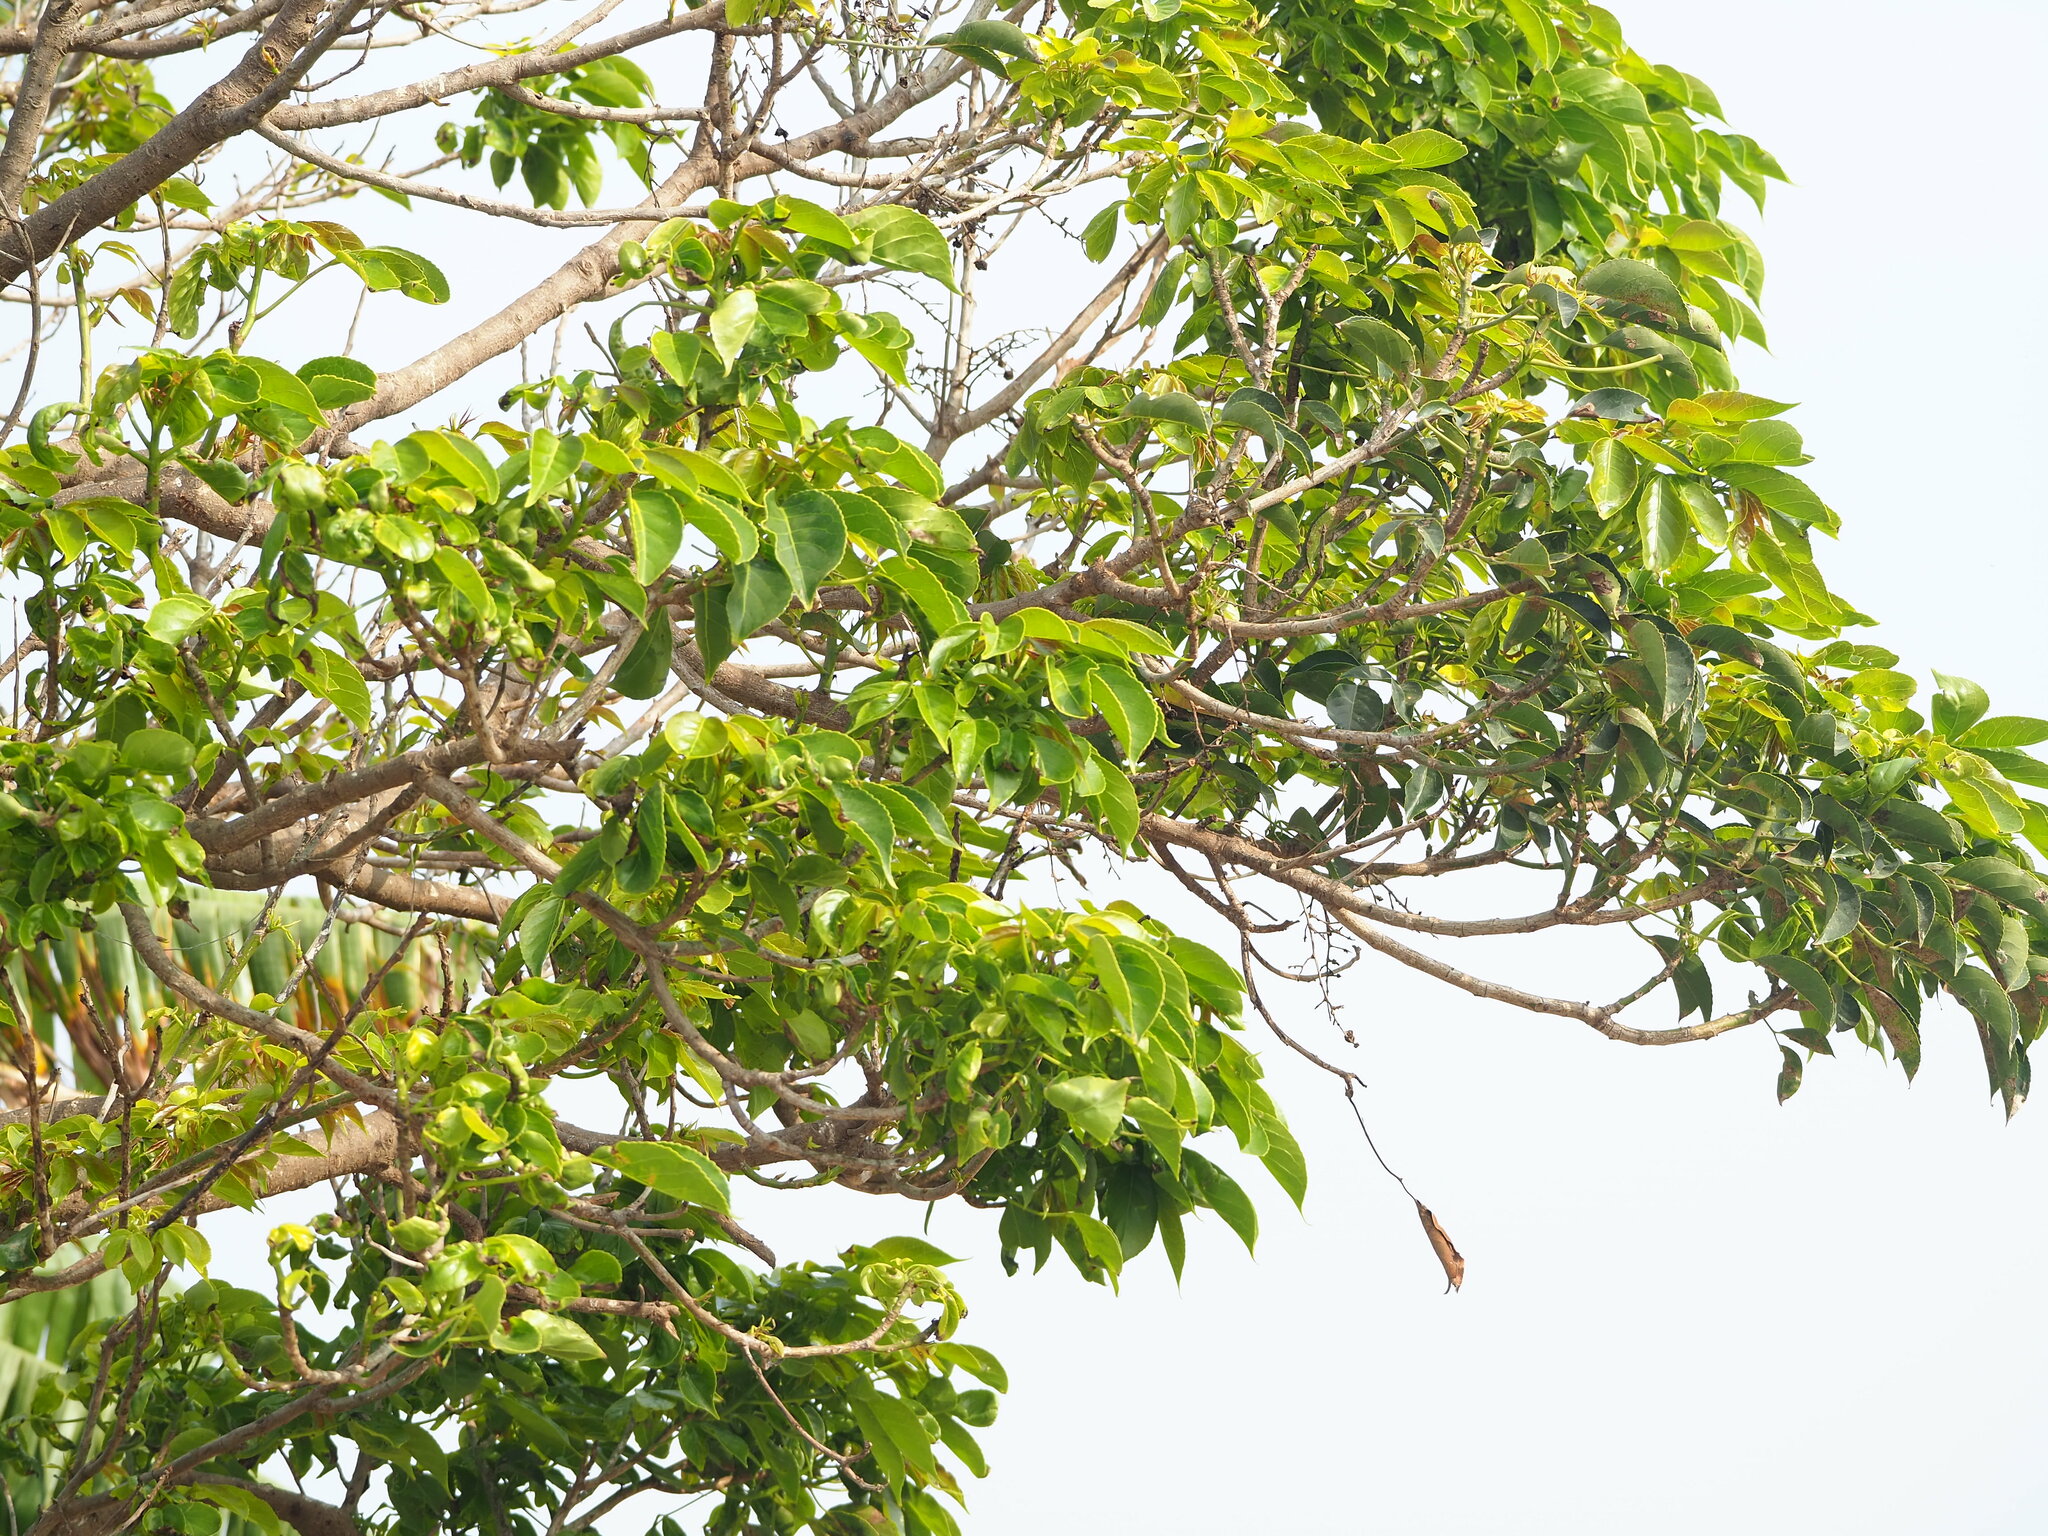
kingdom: Plantae
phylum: Tracheophyta
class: Magnoliopsida
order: Malpighiales
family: Phyllanthaceae
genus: Bischofia
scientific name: Bischofia javanica
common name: Javanese bishopwood
